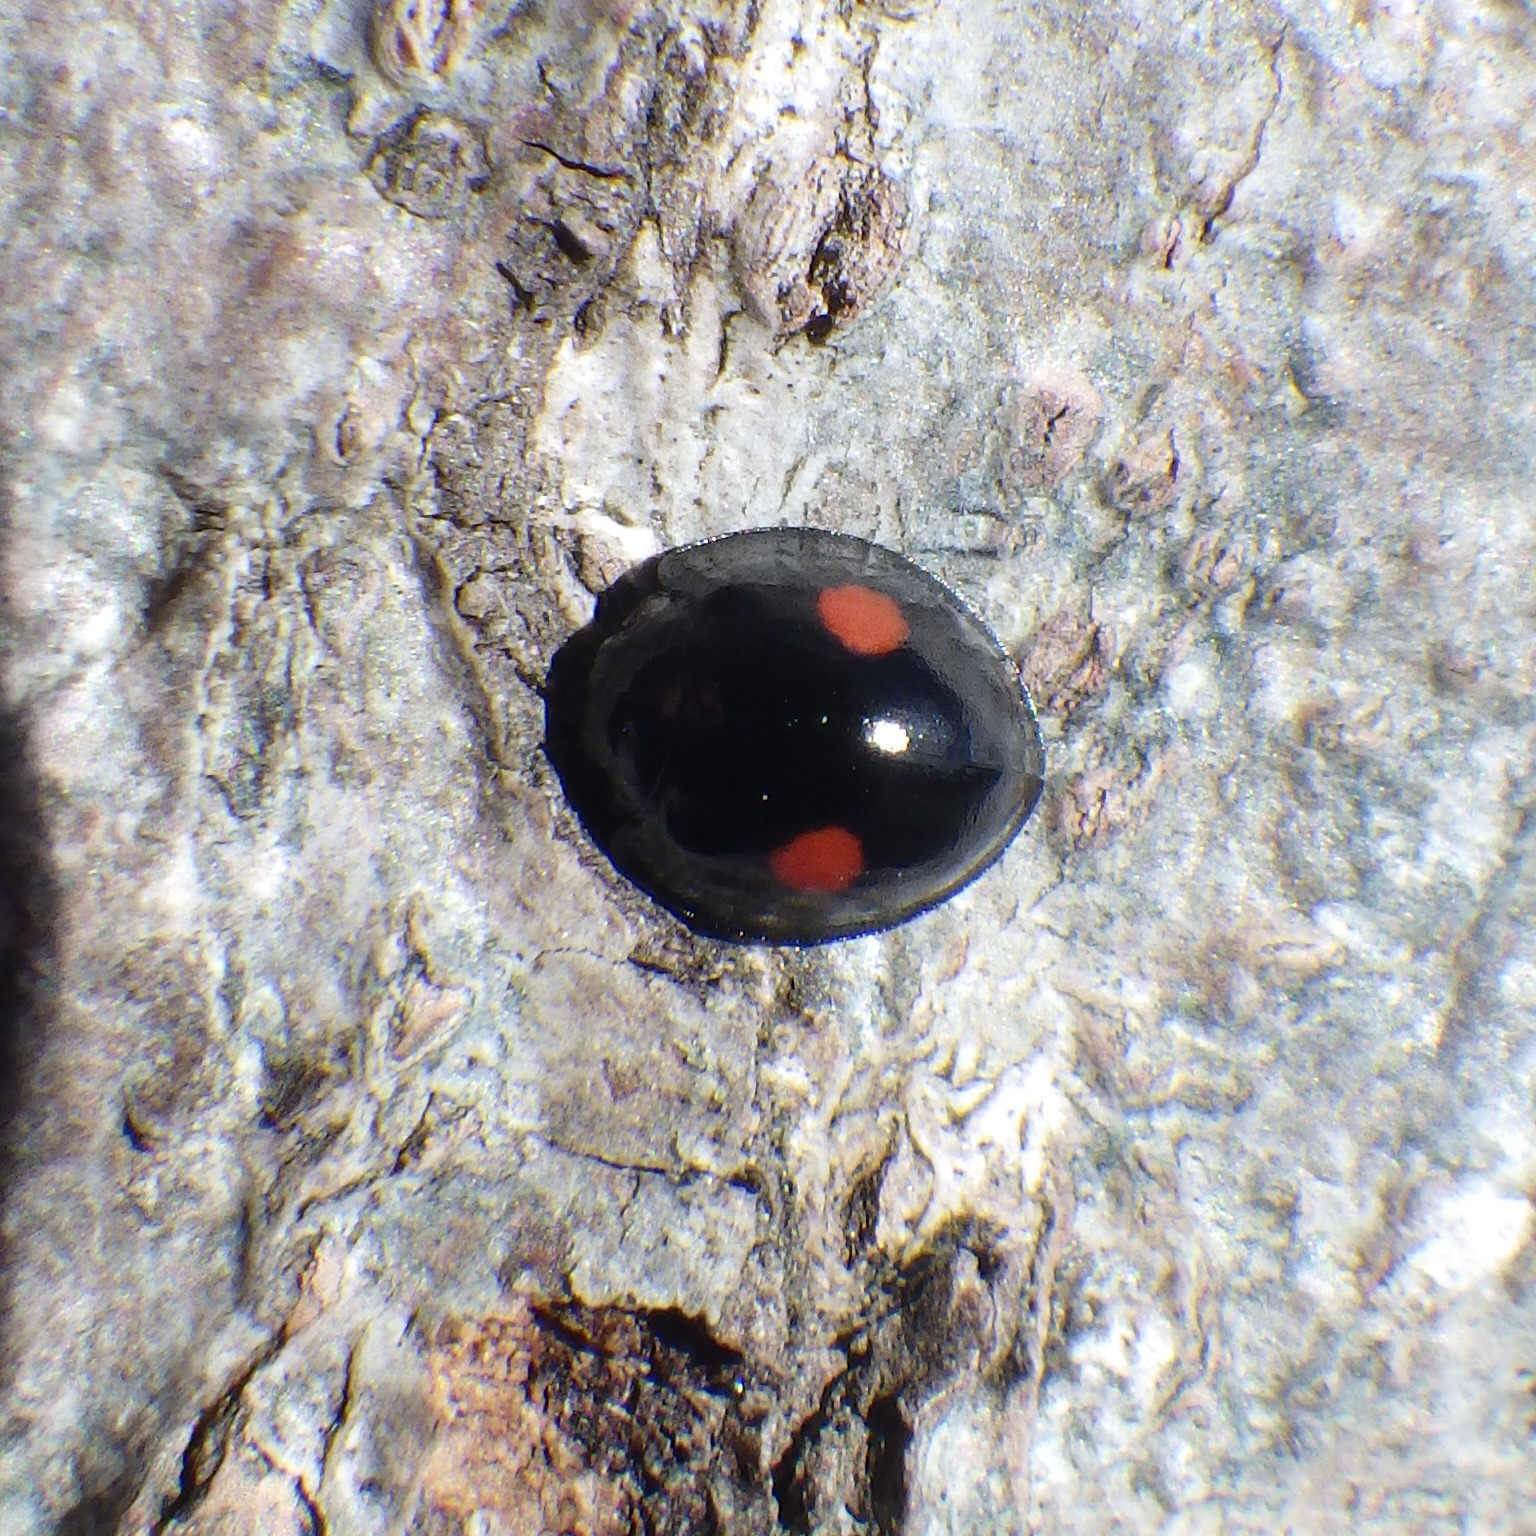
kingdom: Animalia
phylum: Arthropoda
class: Insecta
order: Coleoptera
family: Coccinellidae
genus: Chilocorus
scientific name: Chilocorus stigma
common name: Twicestabbed lady beetle
